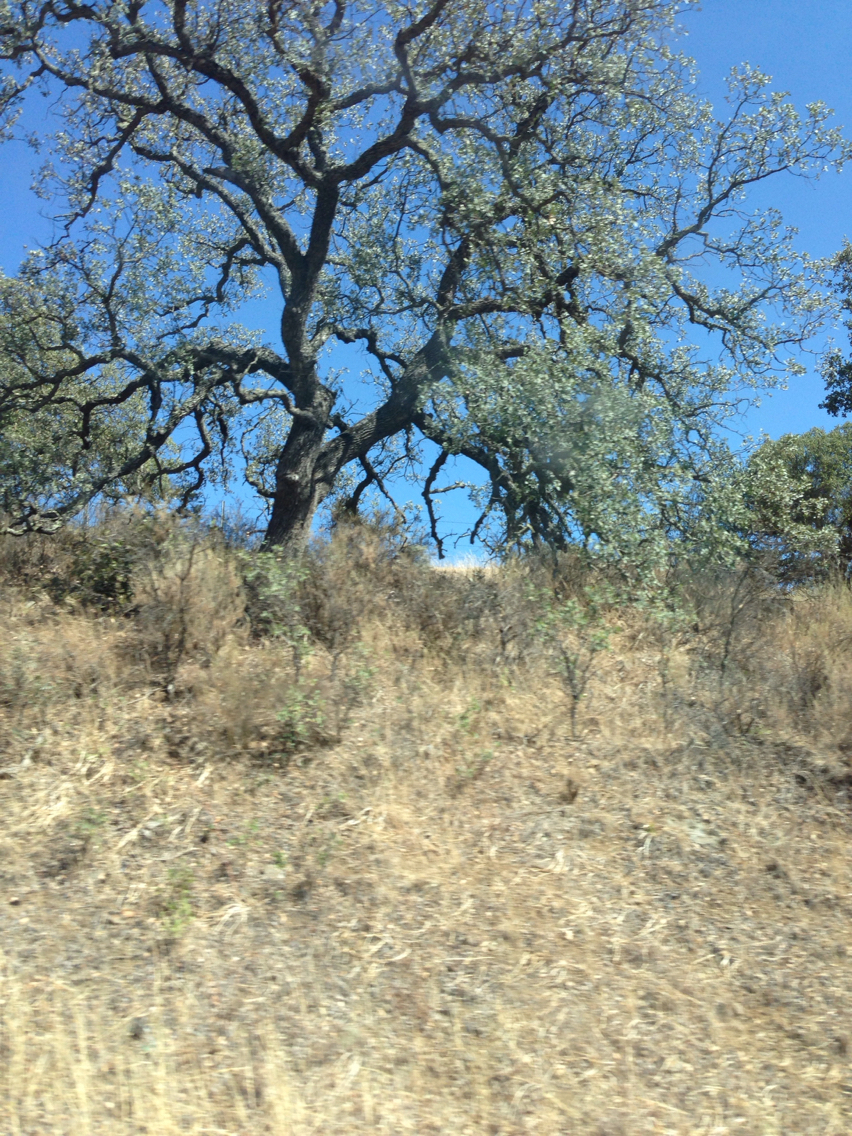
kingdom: Plantae
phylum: Tracheophyta
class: Magnoliopsida
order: Fagales
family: Fagaceae
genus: Quercus
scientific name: Quercus douglasii
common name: Blue oak
